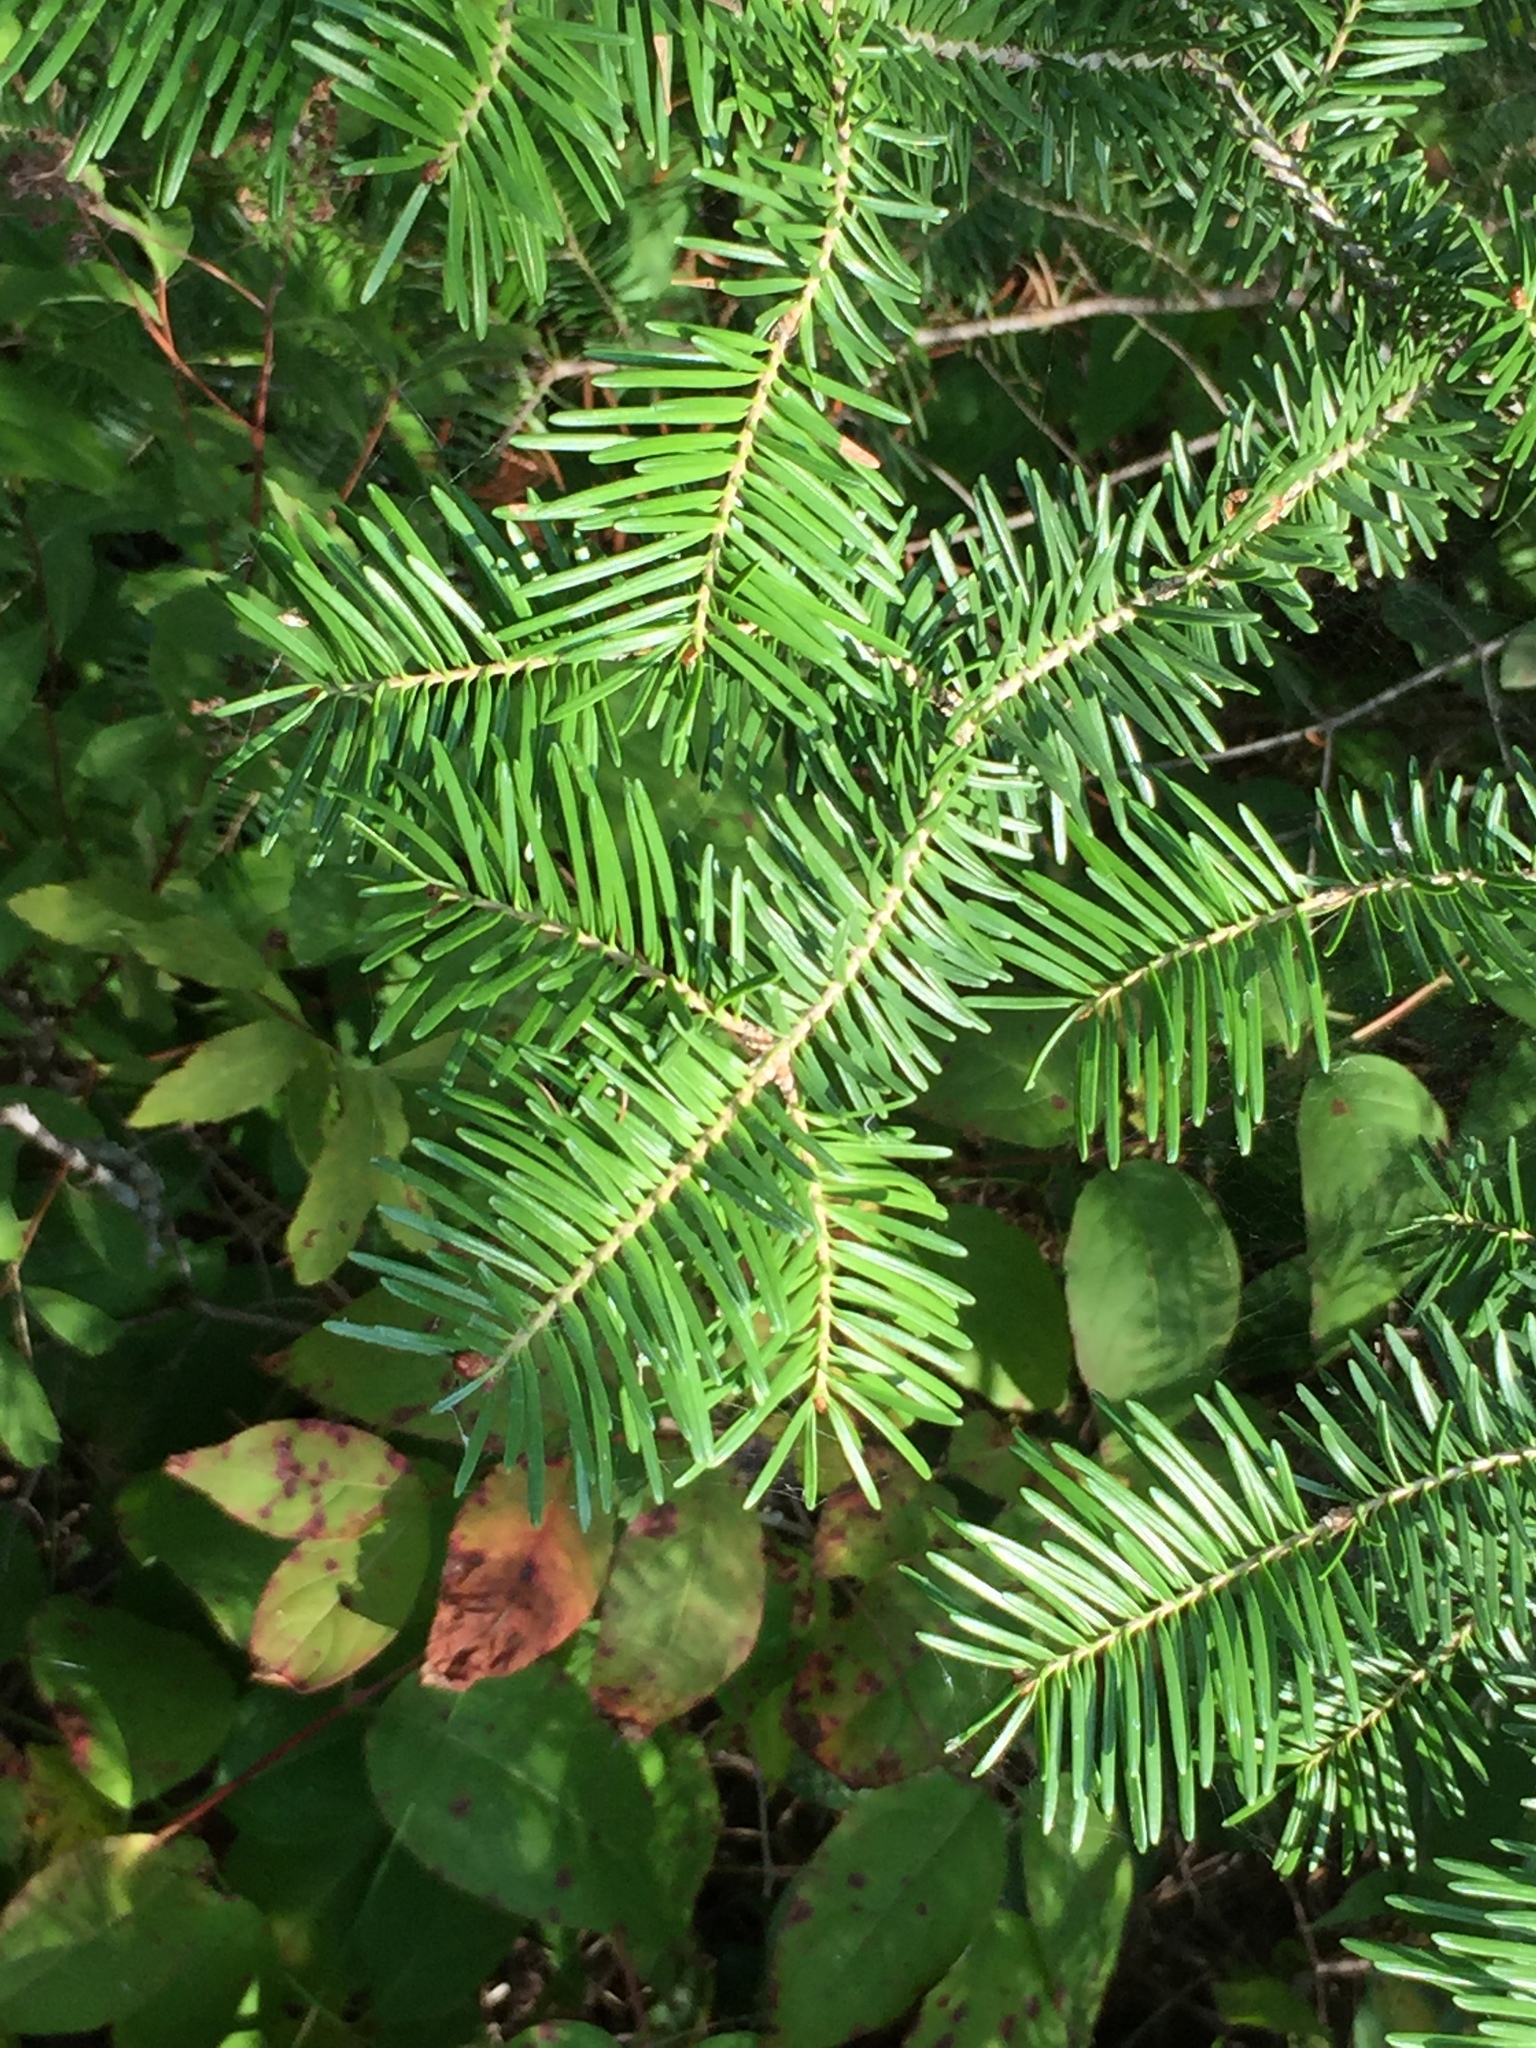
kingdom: Plantae
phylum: Tracheophyta
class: Pinopsida
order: Pinales
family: Pinaceae
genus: Abies
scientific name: Abies balsamea
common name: Balsam fir
